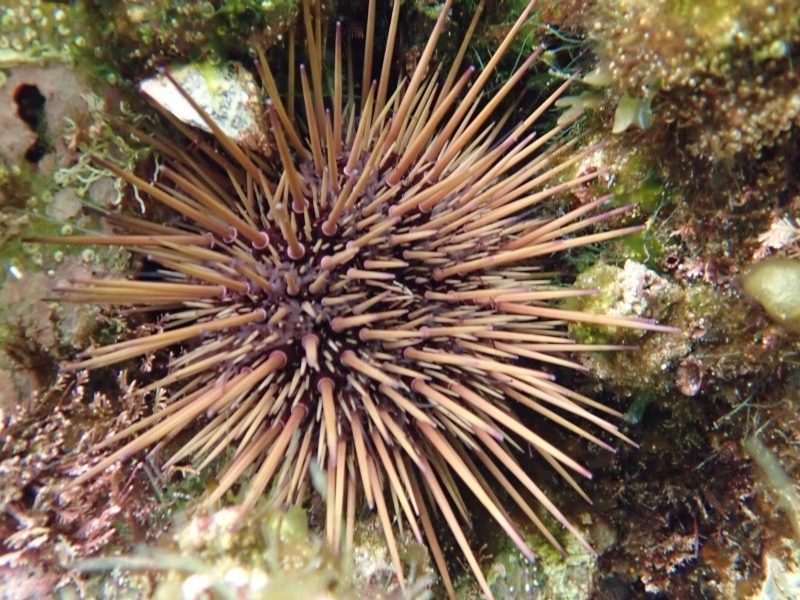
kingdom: Animalia
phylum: Echinodermata
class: Echinoidea
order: Camarodonta
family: Echinometridae
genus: Heliocidaris
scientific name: Heliocidaris erythrogramma
